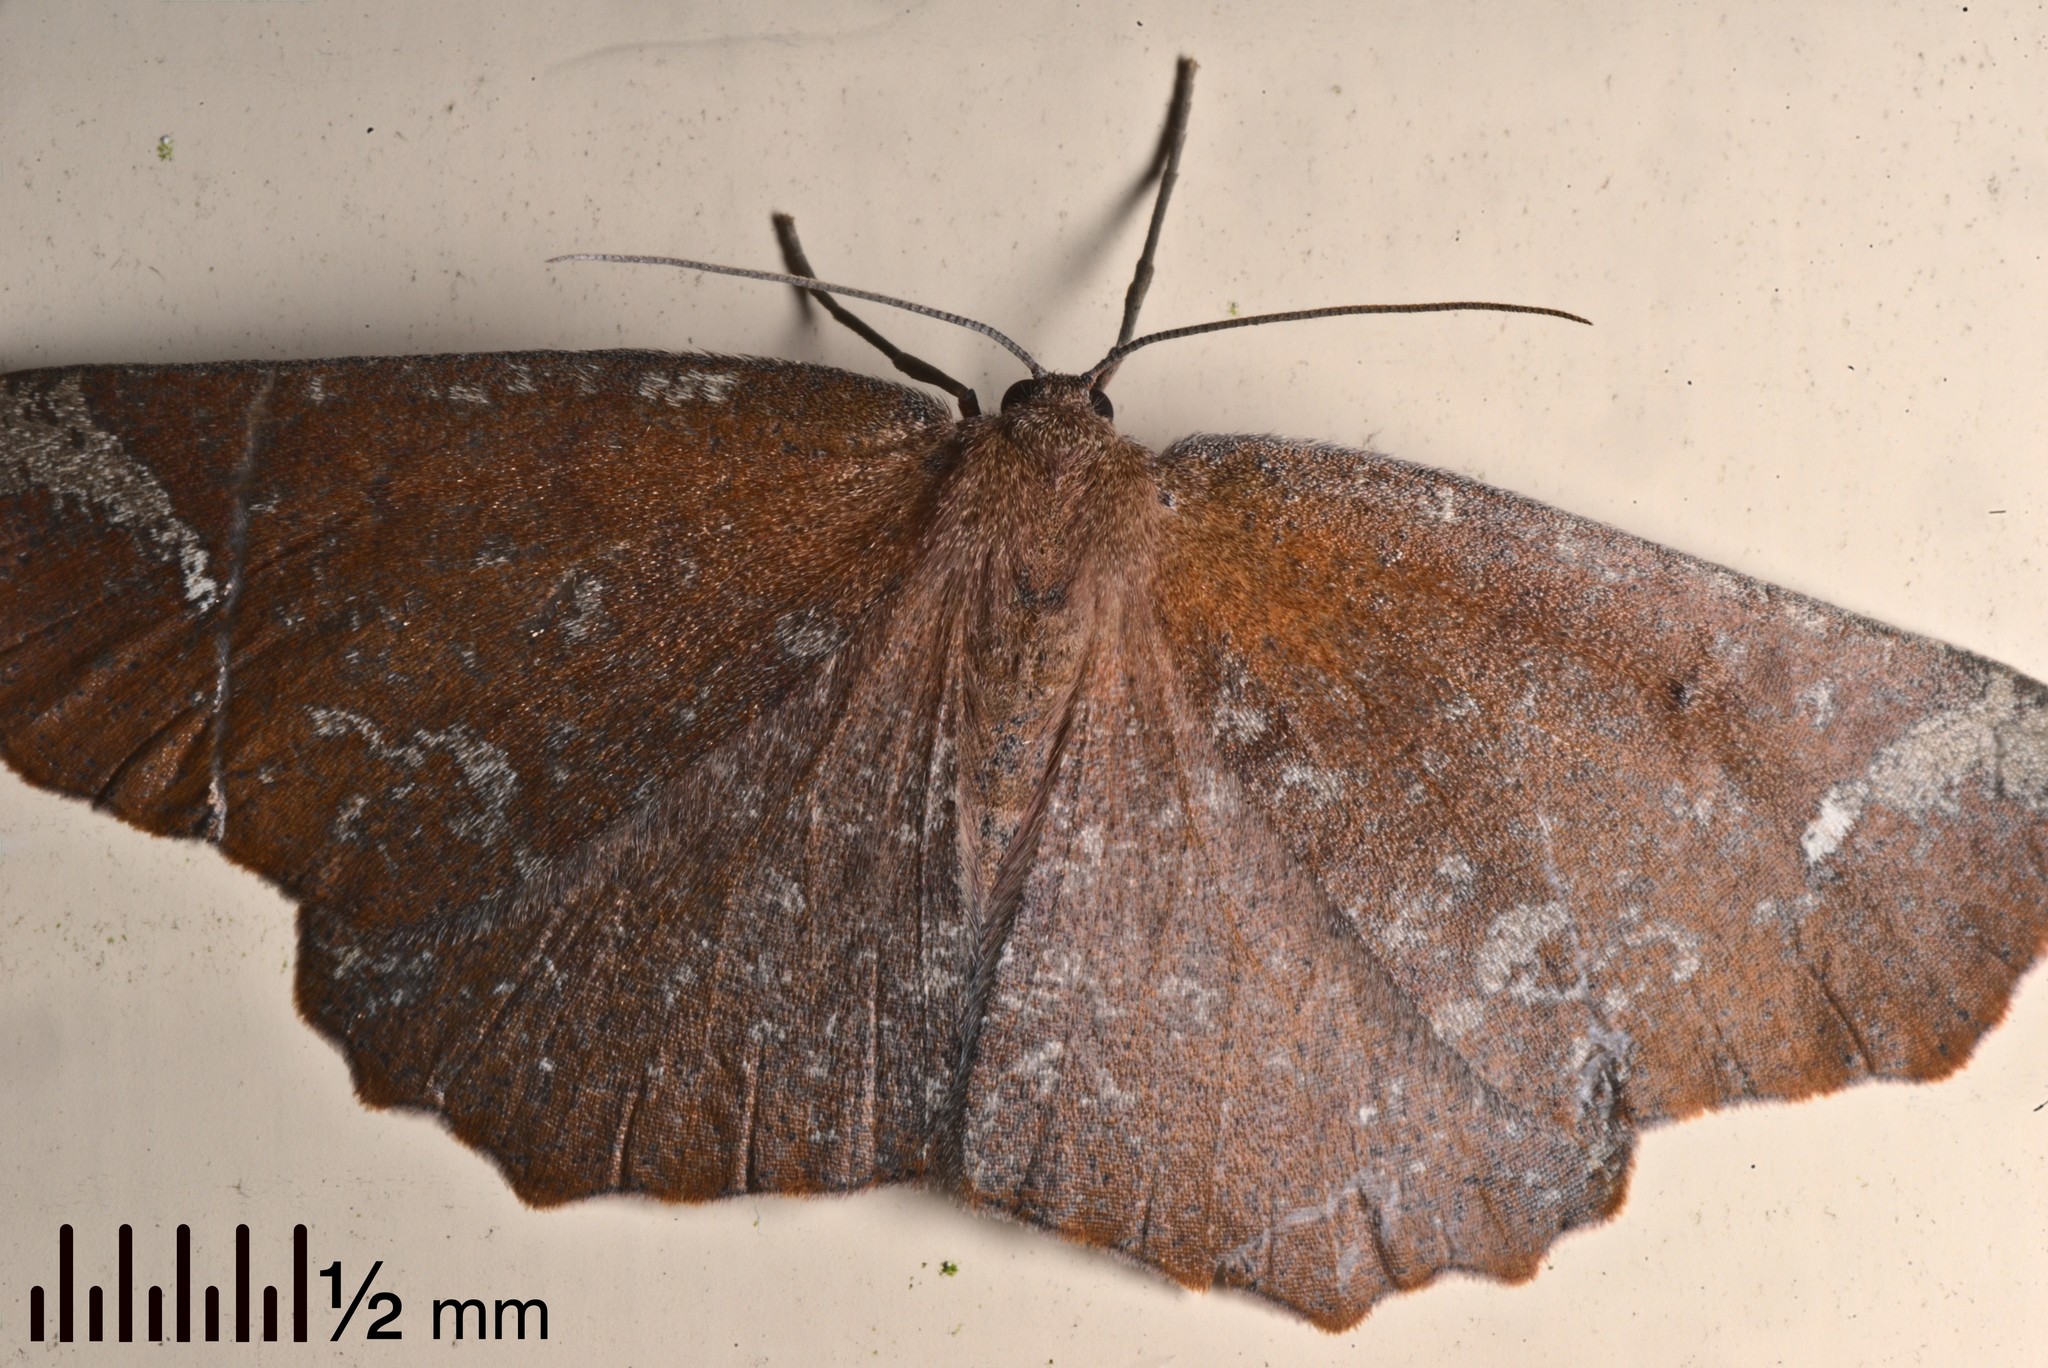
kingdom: Animalia
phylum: Arthropoda
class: Insecta
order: Lepidoptera
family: Geometridae
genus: Xyridacma
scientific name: Xyridacma ustaria
